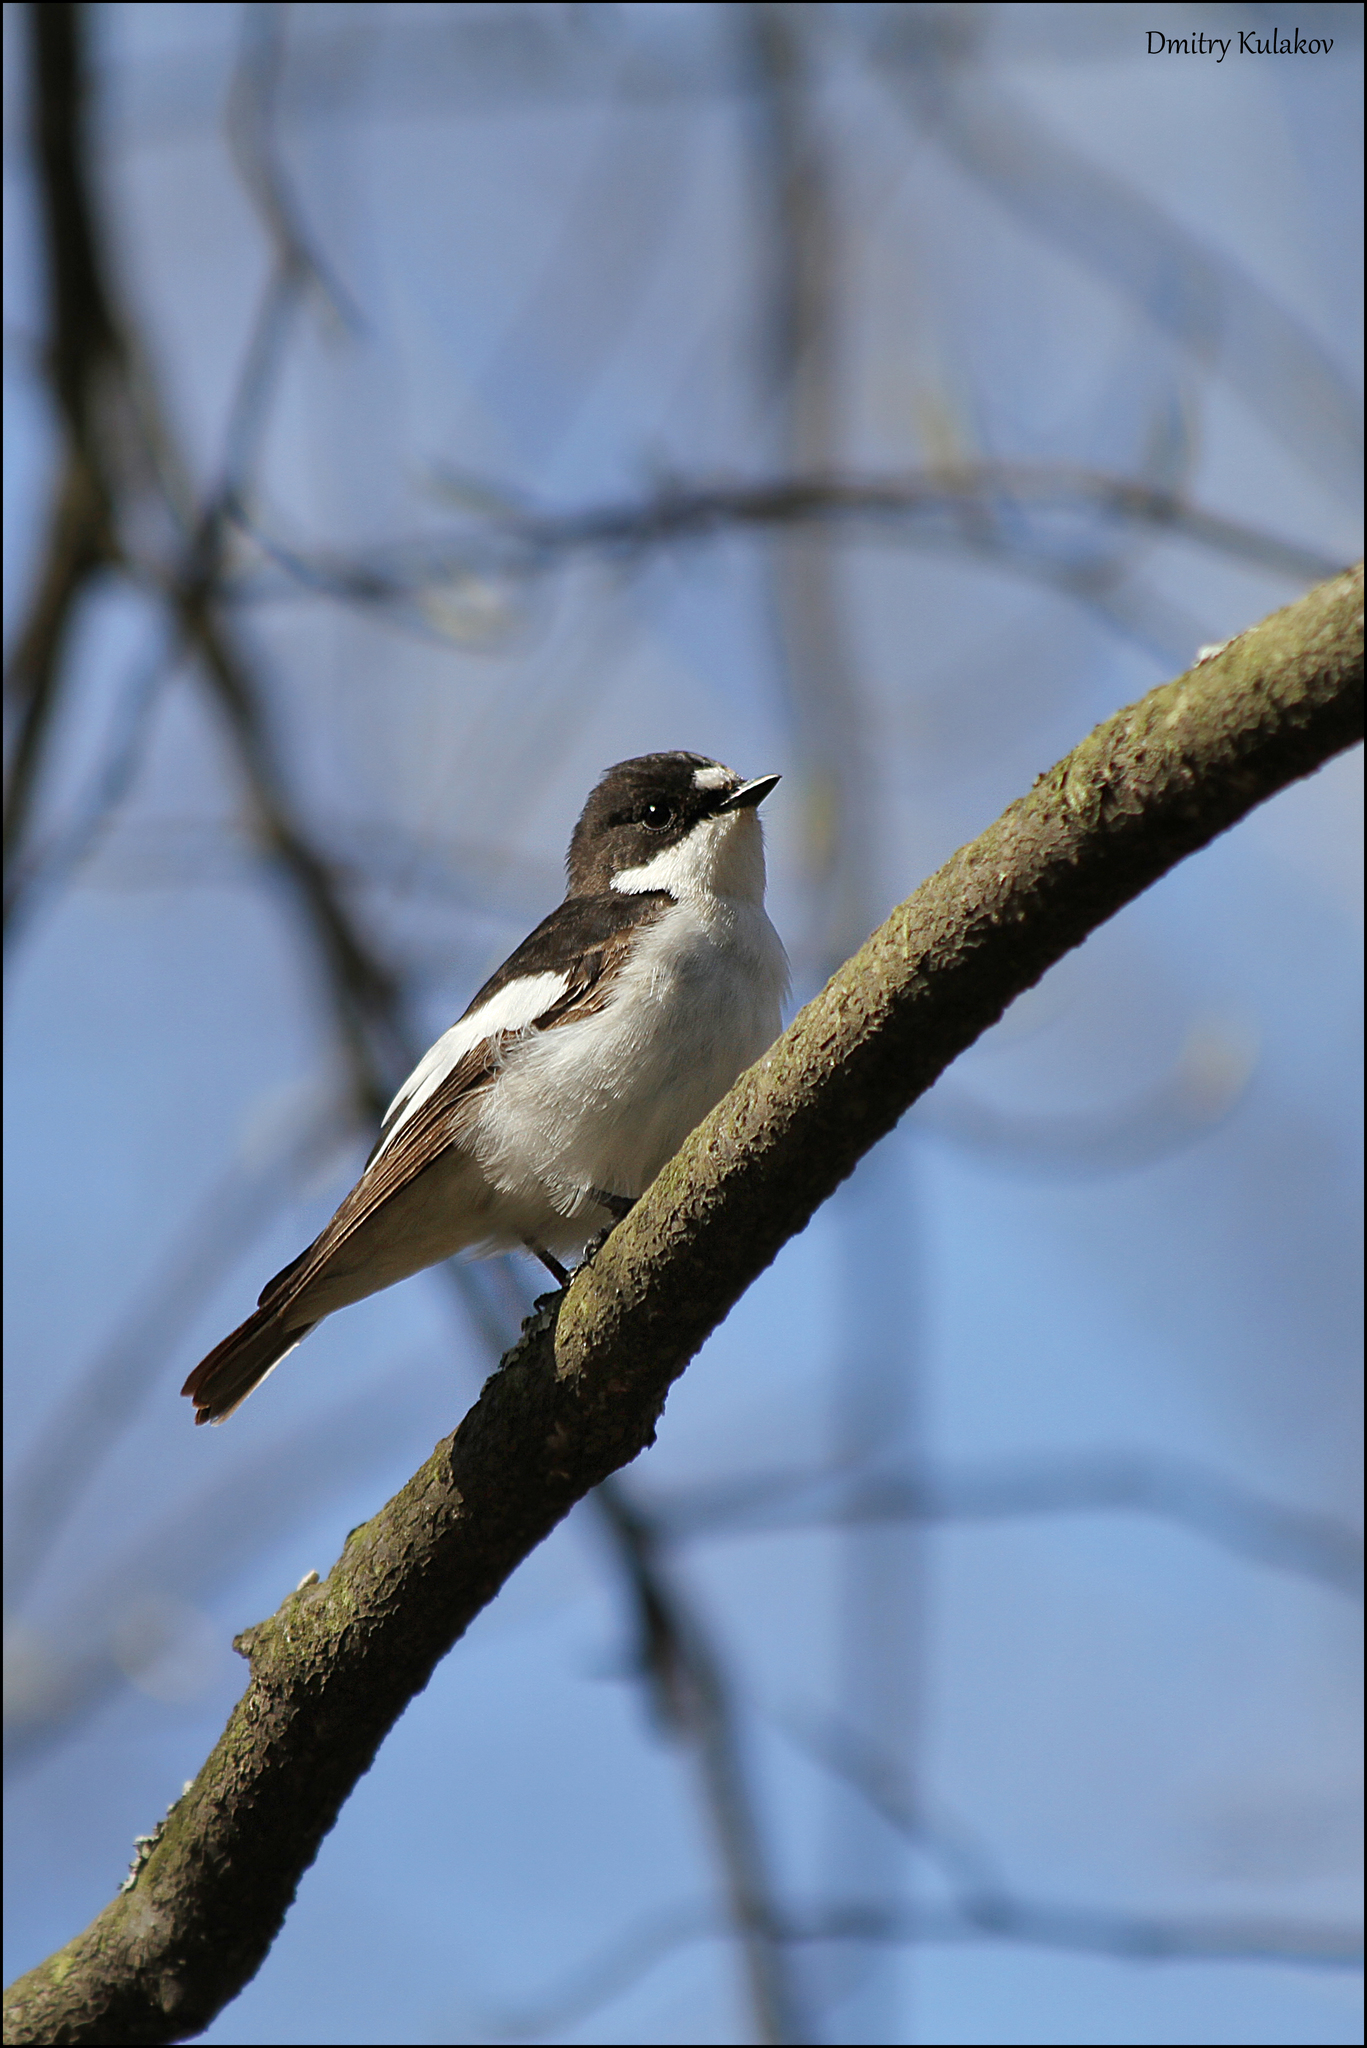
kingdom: Animalia
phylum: Chordata
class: Aves
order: Passeriformes
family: Muscicapidae
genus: Ficedula
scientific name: Ficedula hypoleuca
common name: European pied flycatcher
